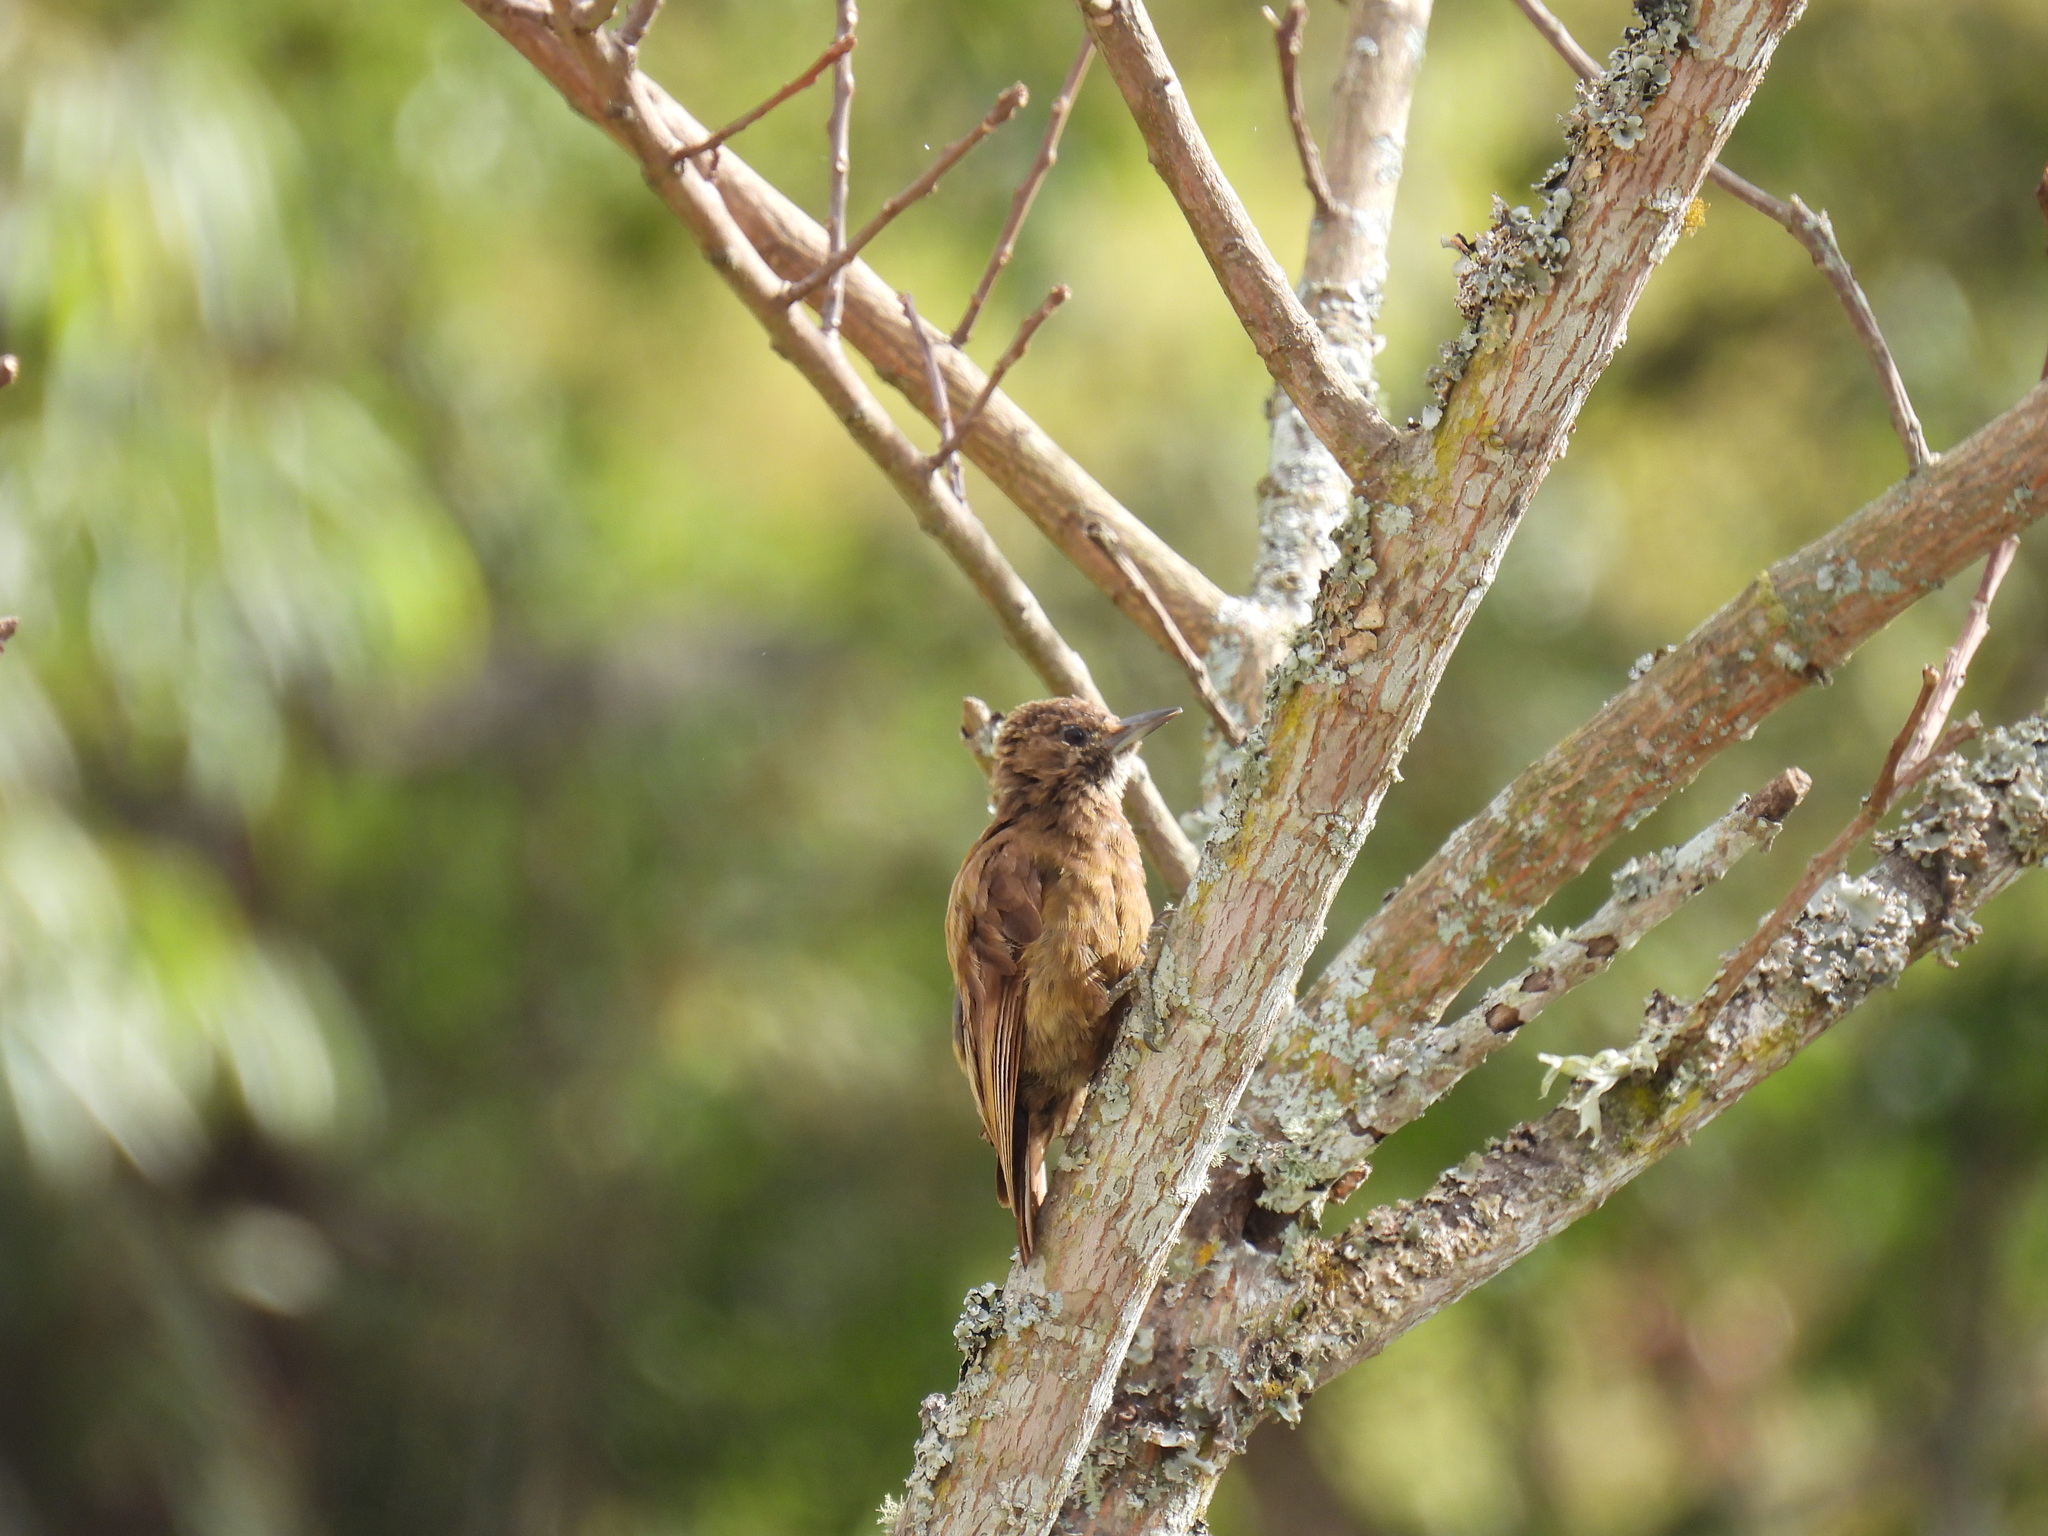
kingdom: Animalia
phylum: Chordata
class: Aves
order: Piciformes
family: Picidae
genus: Leuconotopicus
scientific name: Leuconotopicus fumigatus
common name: Smoky-brown woodpecker
